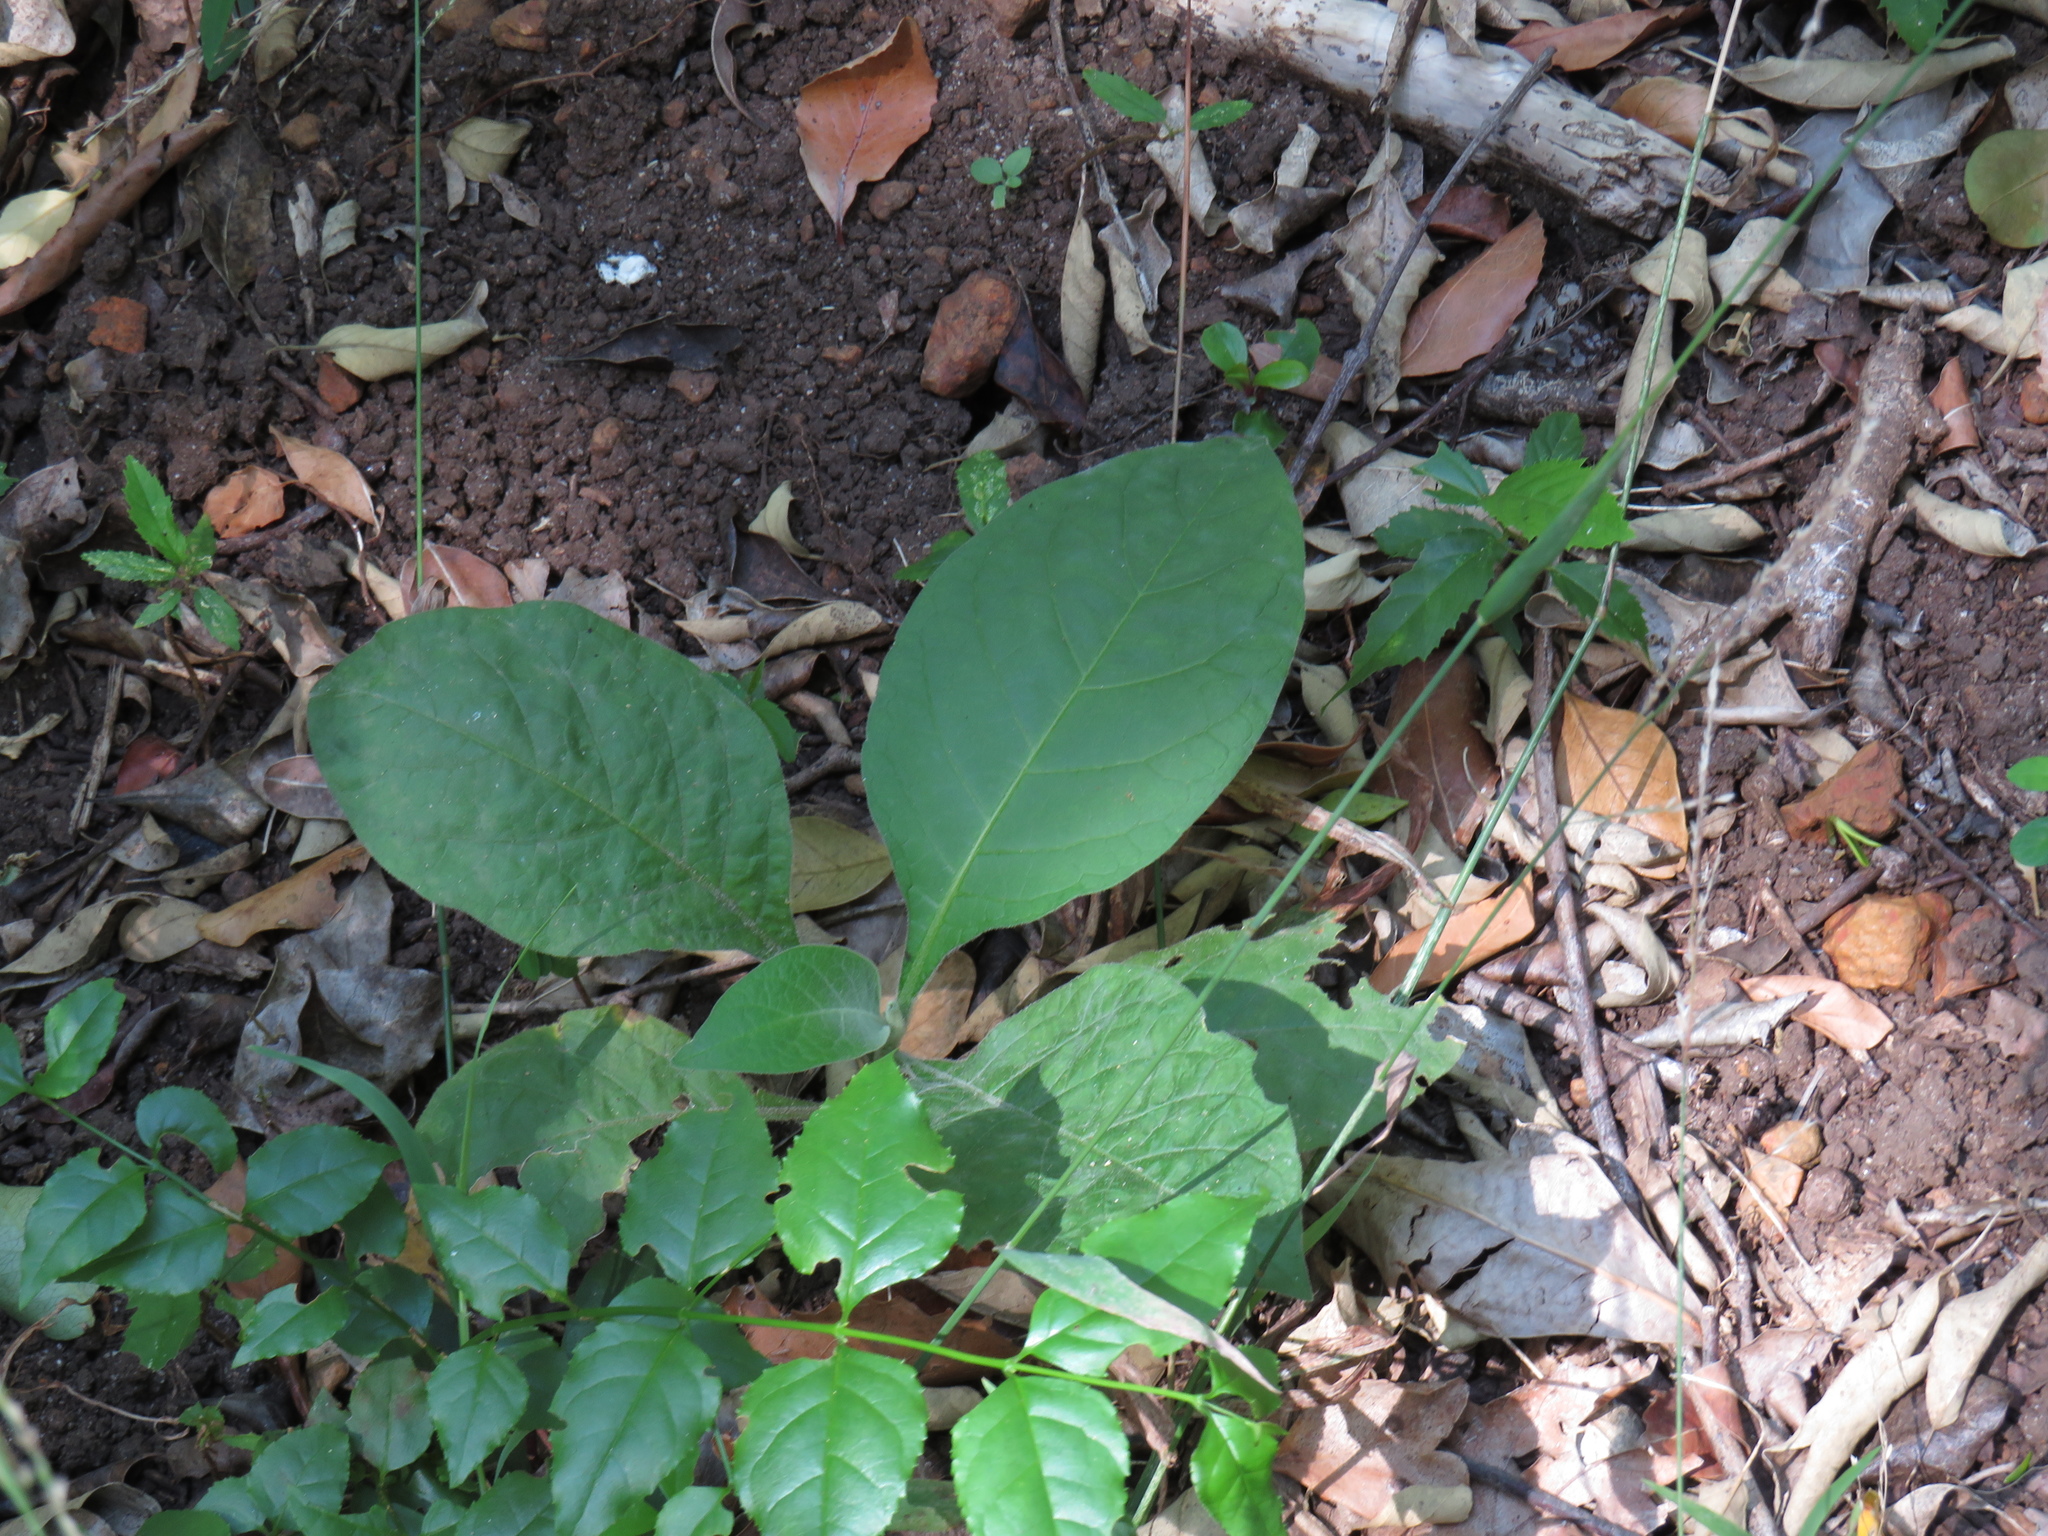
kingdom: Plantae
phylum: Tracheophyta
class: Magnoliopsida
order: Solanales
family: Solanaceae
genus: Solanum
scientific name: Solanum mauritianum
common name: Earleaf nightshade
